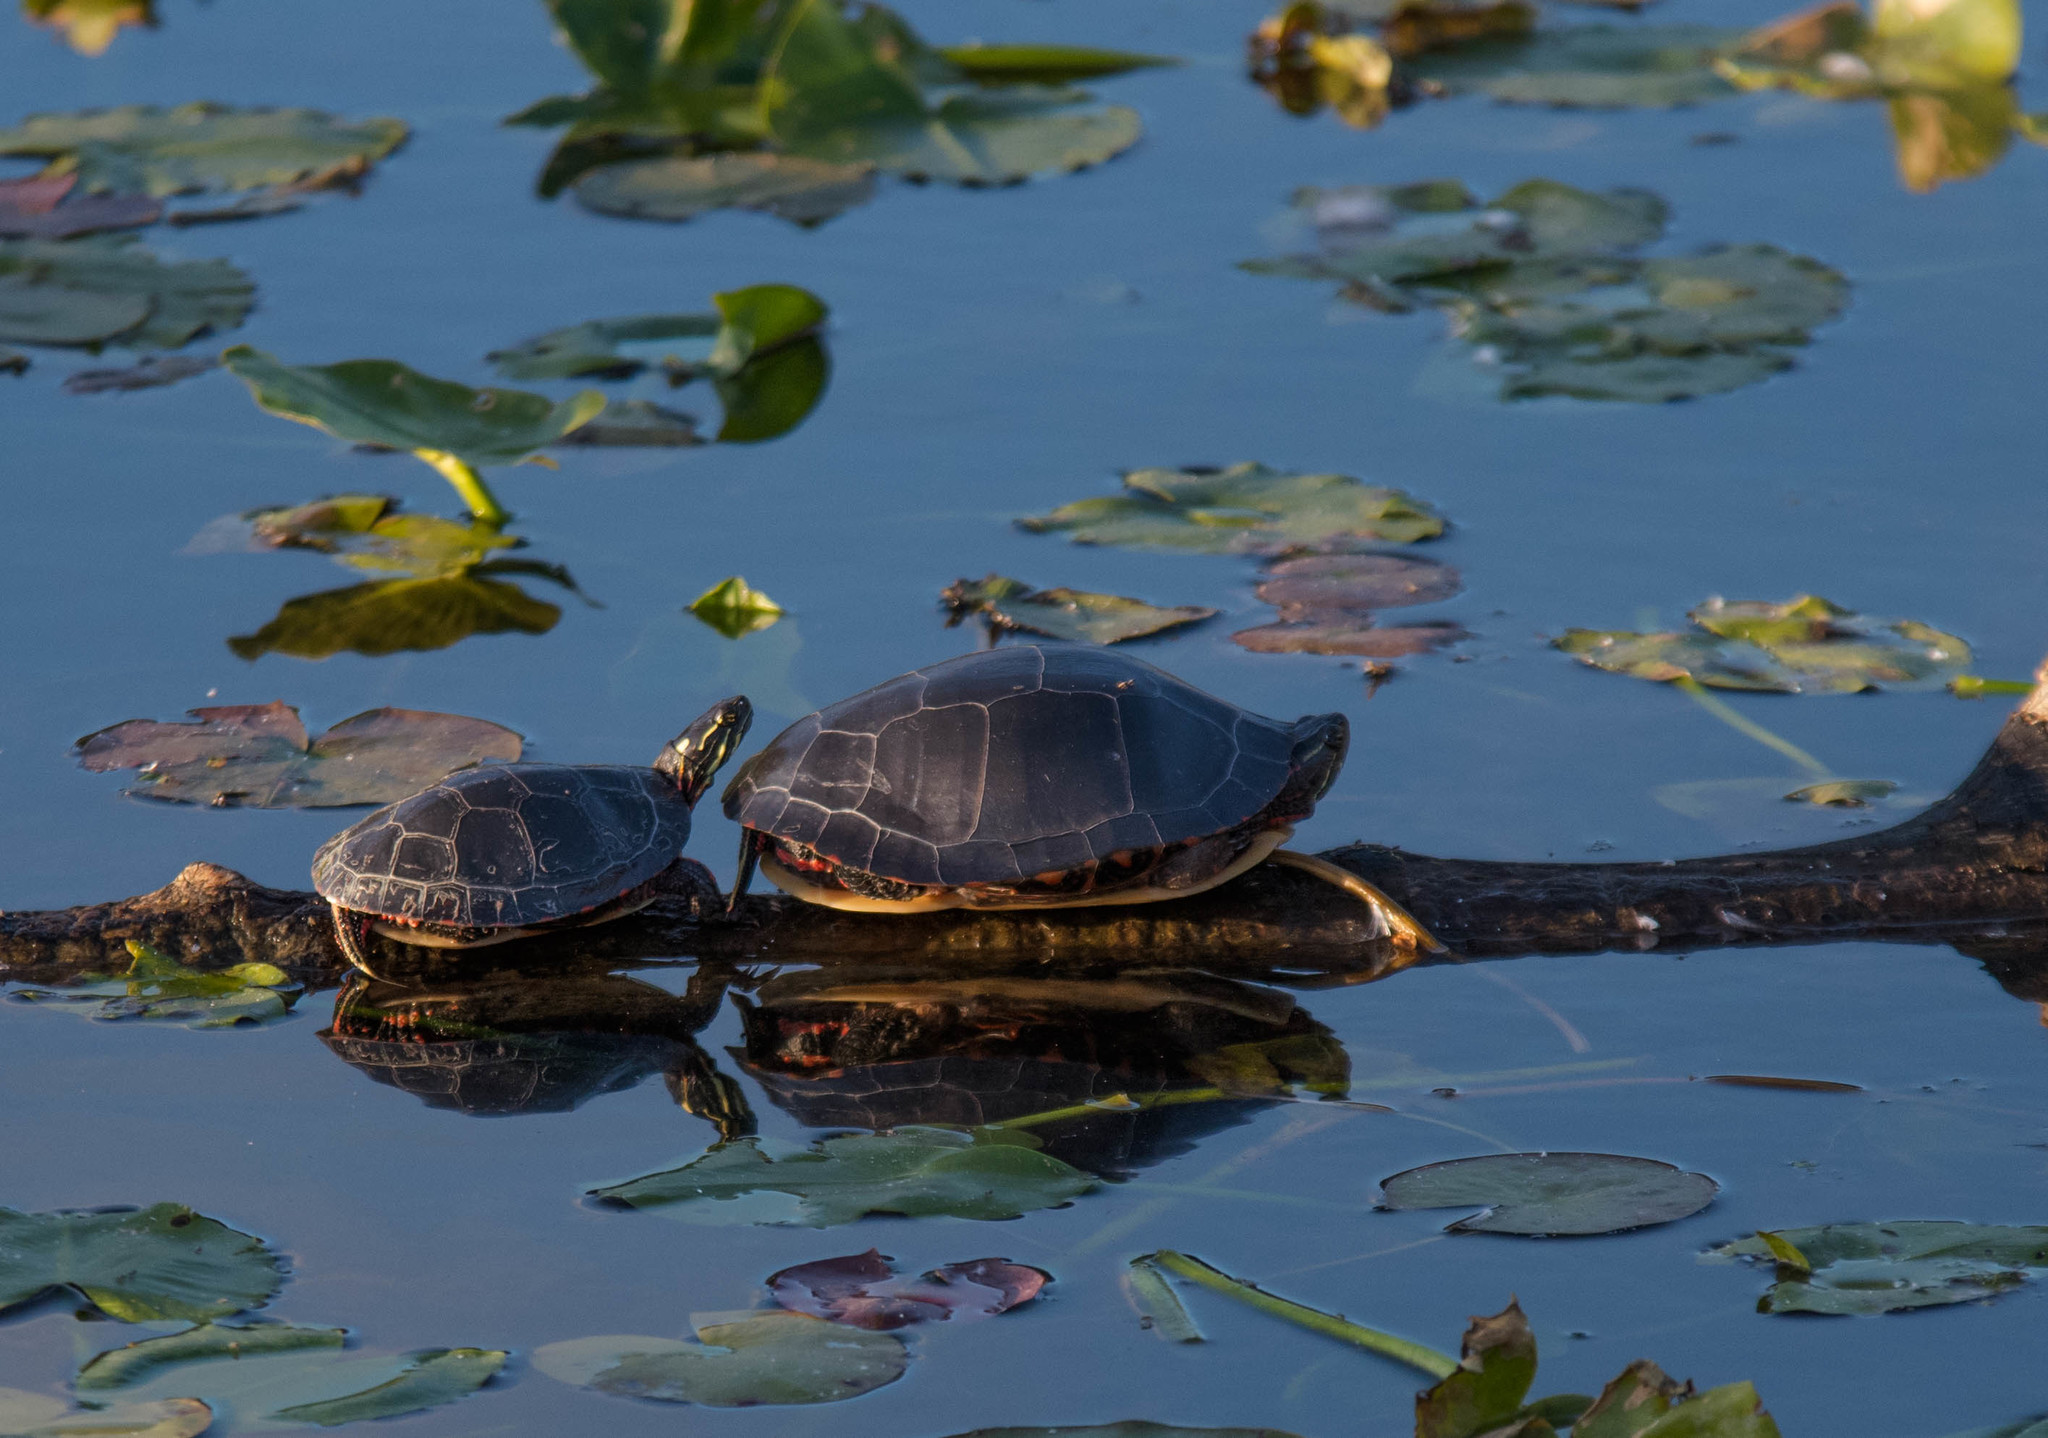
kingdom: Animalia
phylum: Chordata
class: Testudines
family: Emydidae
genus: Chrysemys
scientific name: Chrysemys picta
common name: Painted turtle
